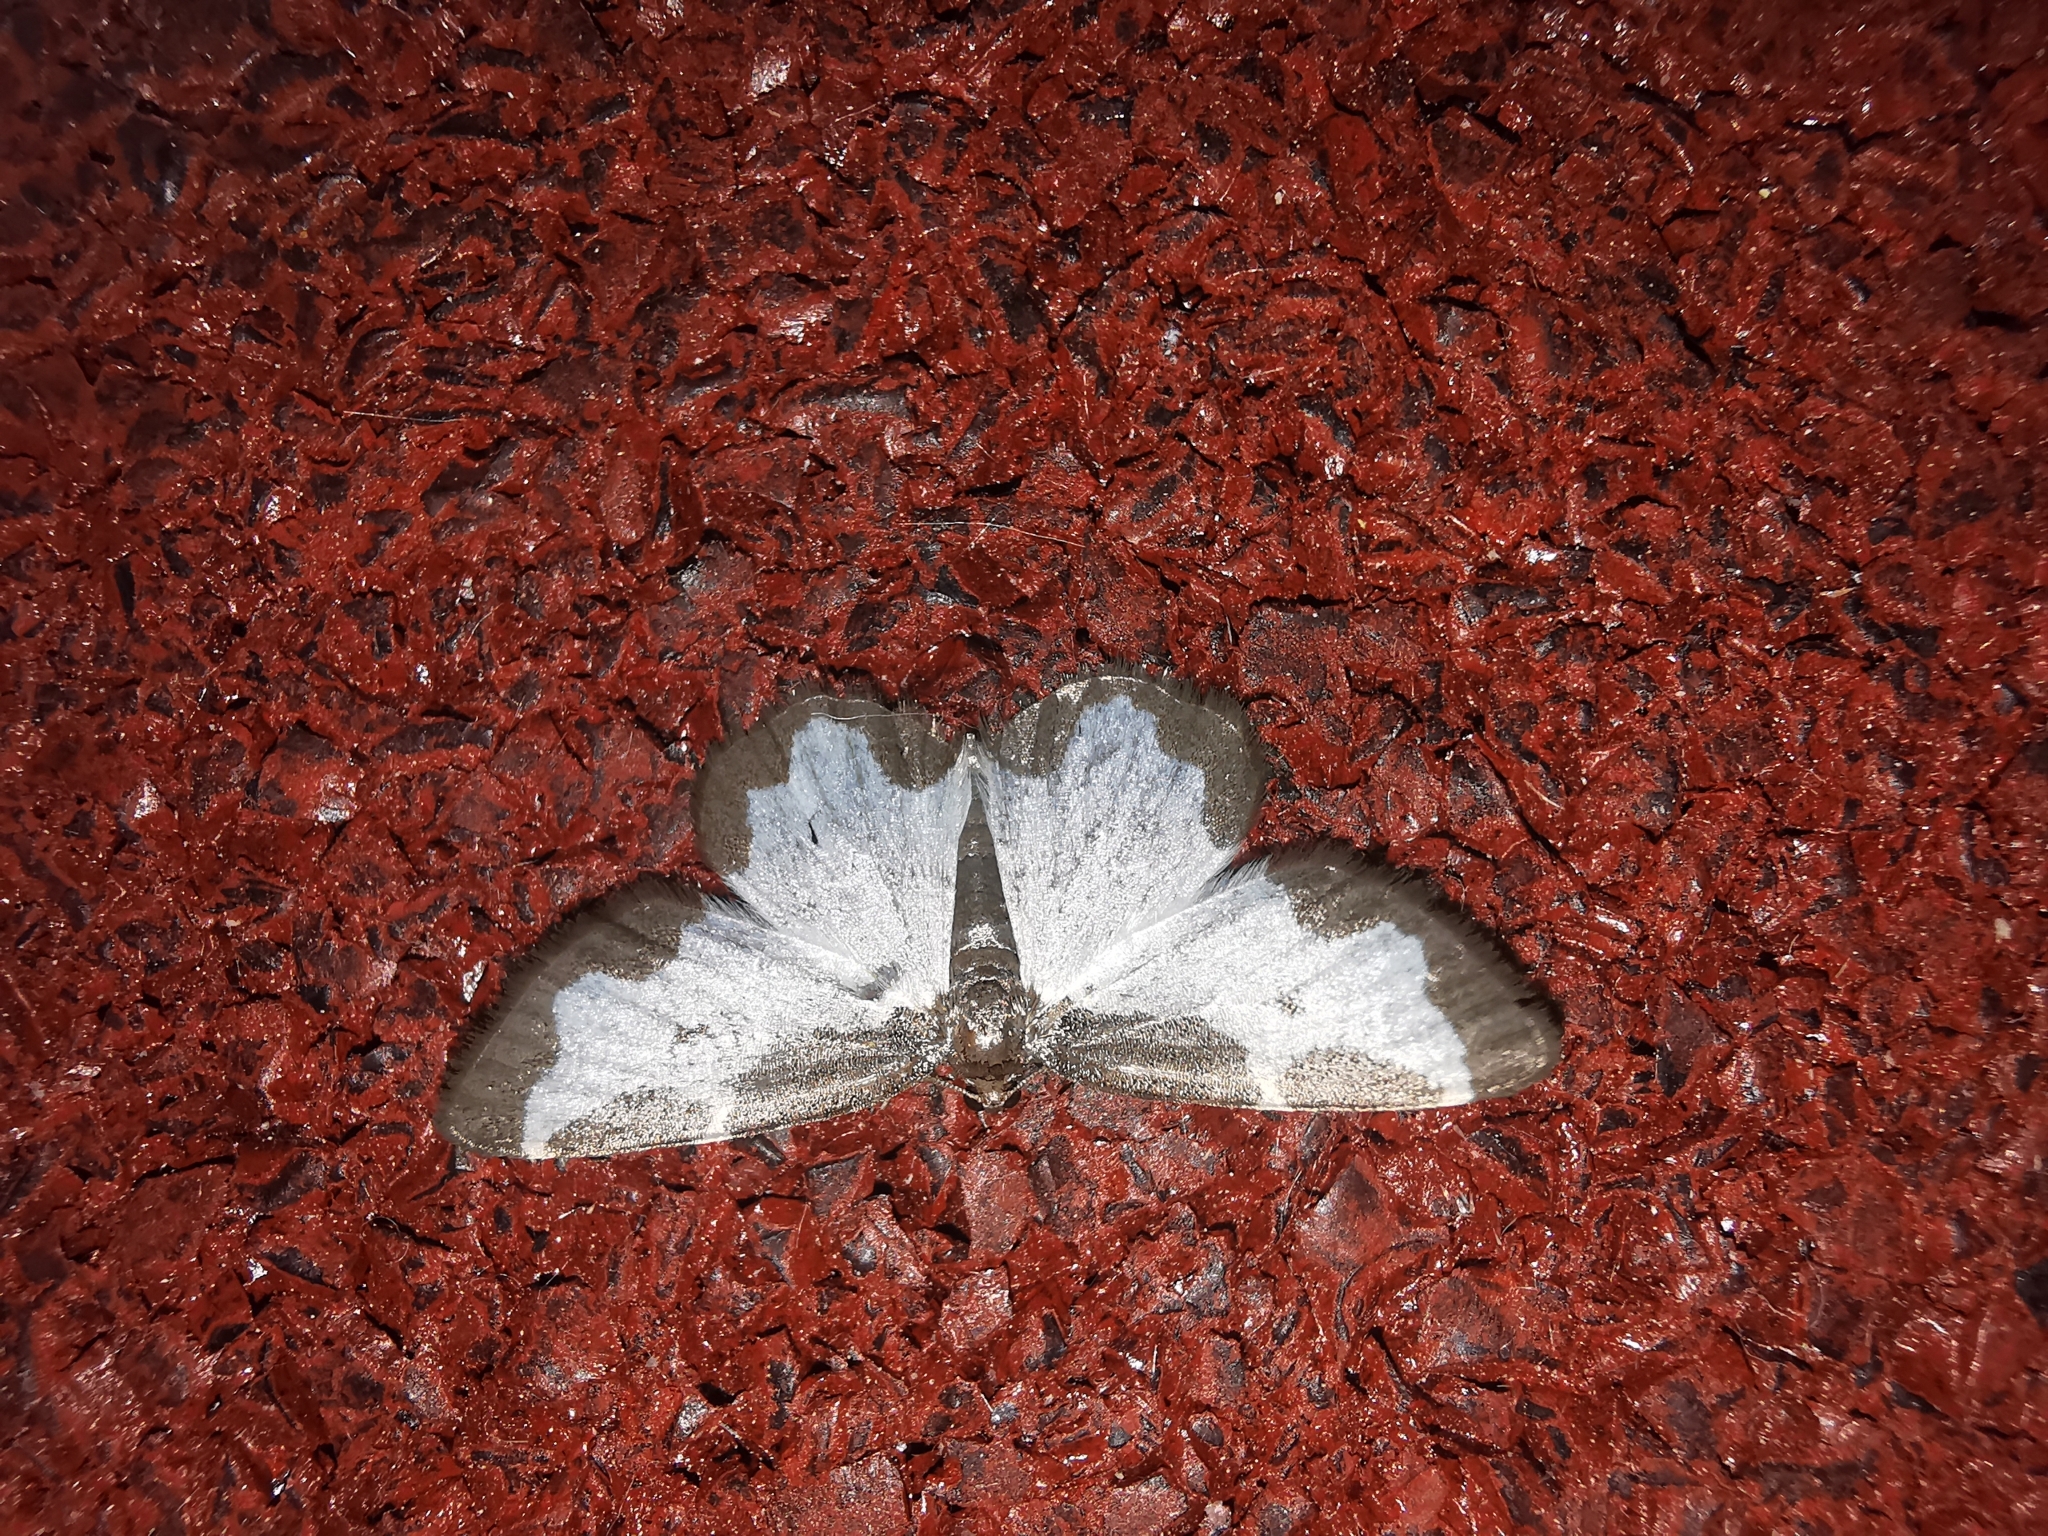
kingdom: Animalia
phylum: Arthropoda
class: Insecta
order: Lepidoptera
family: Geometridae
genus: Lomaspilis
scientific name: Lomaspilis marginata
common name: Clouded border
